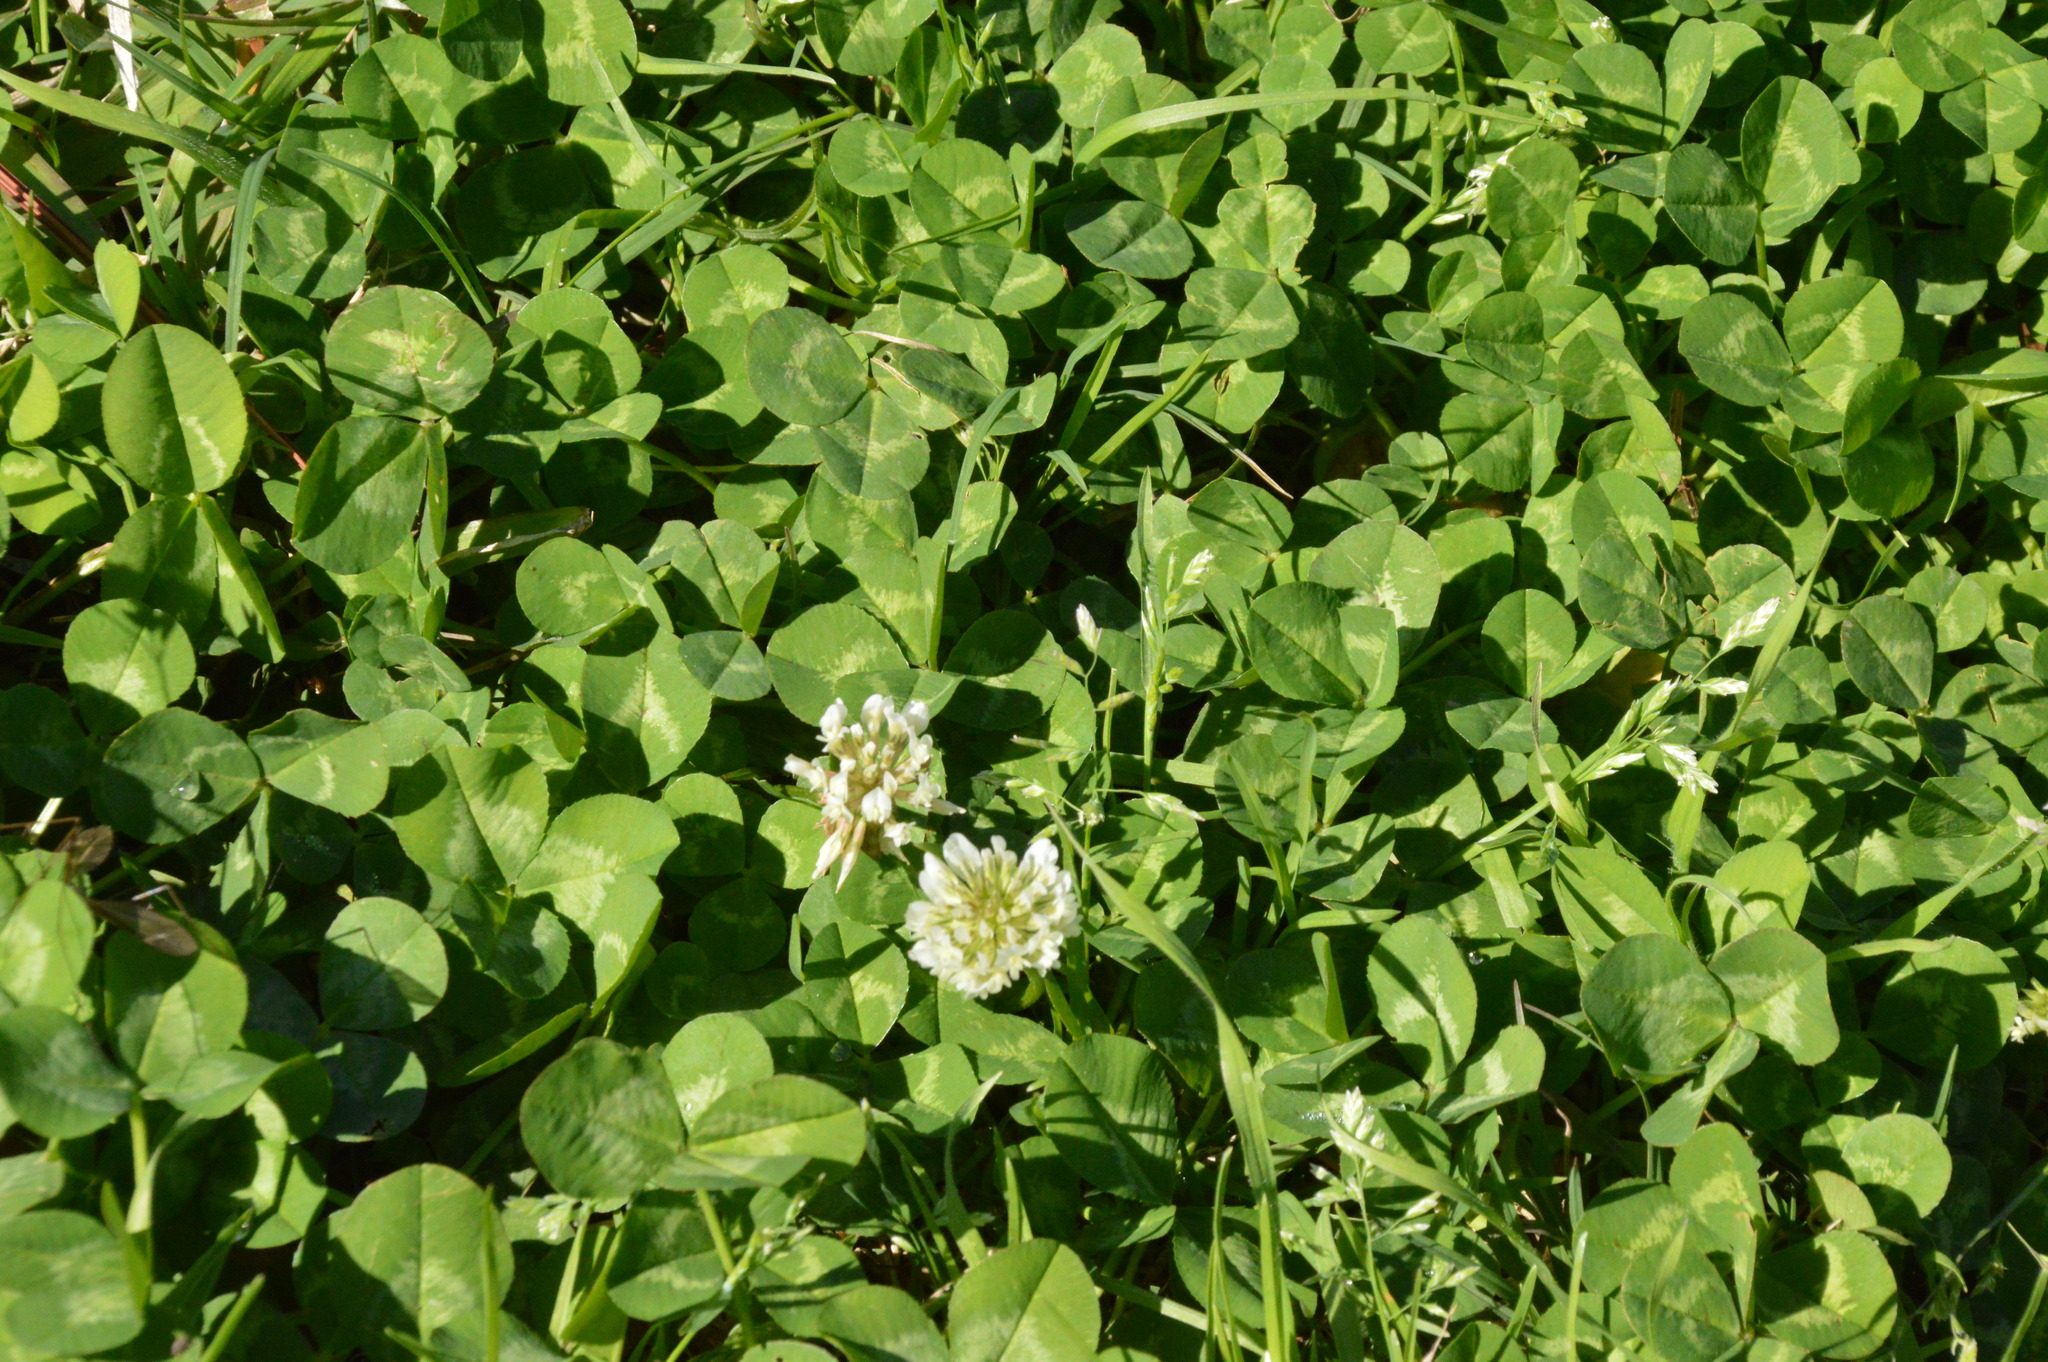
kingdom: Plantae
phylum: Tracheophyta
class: Magnoliopsida
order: Fabales
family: Fabaceae
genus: Trifolium
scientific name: Trifolium repens
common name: White clover
